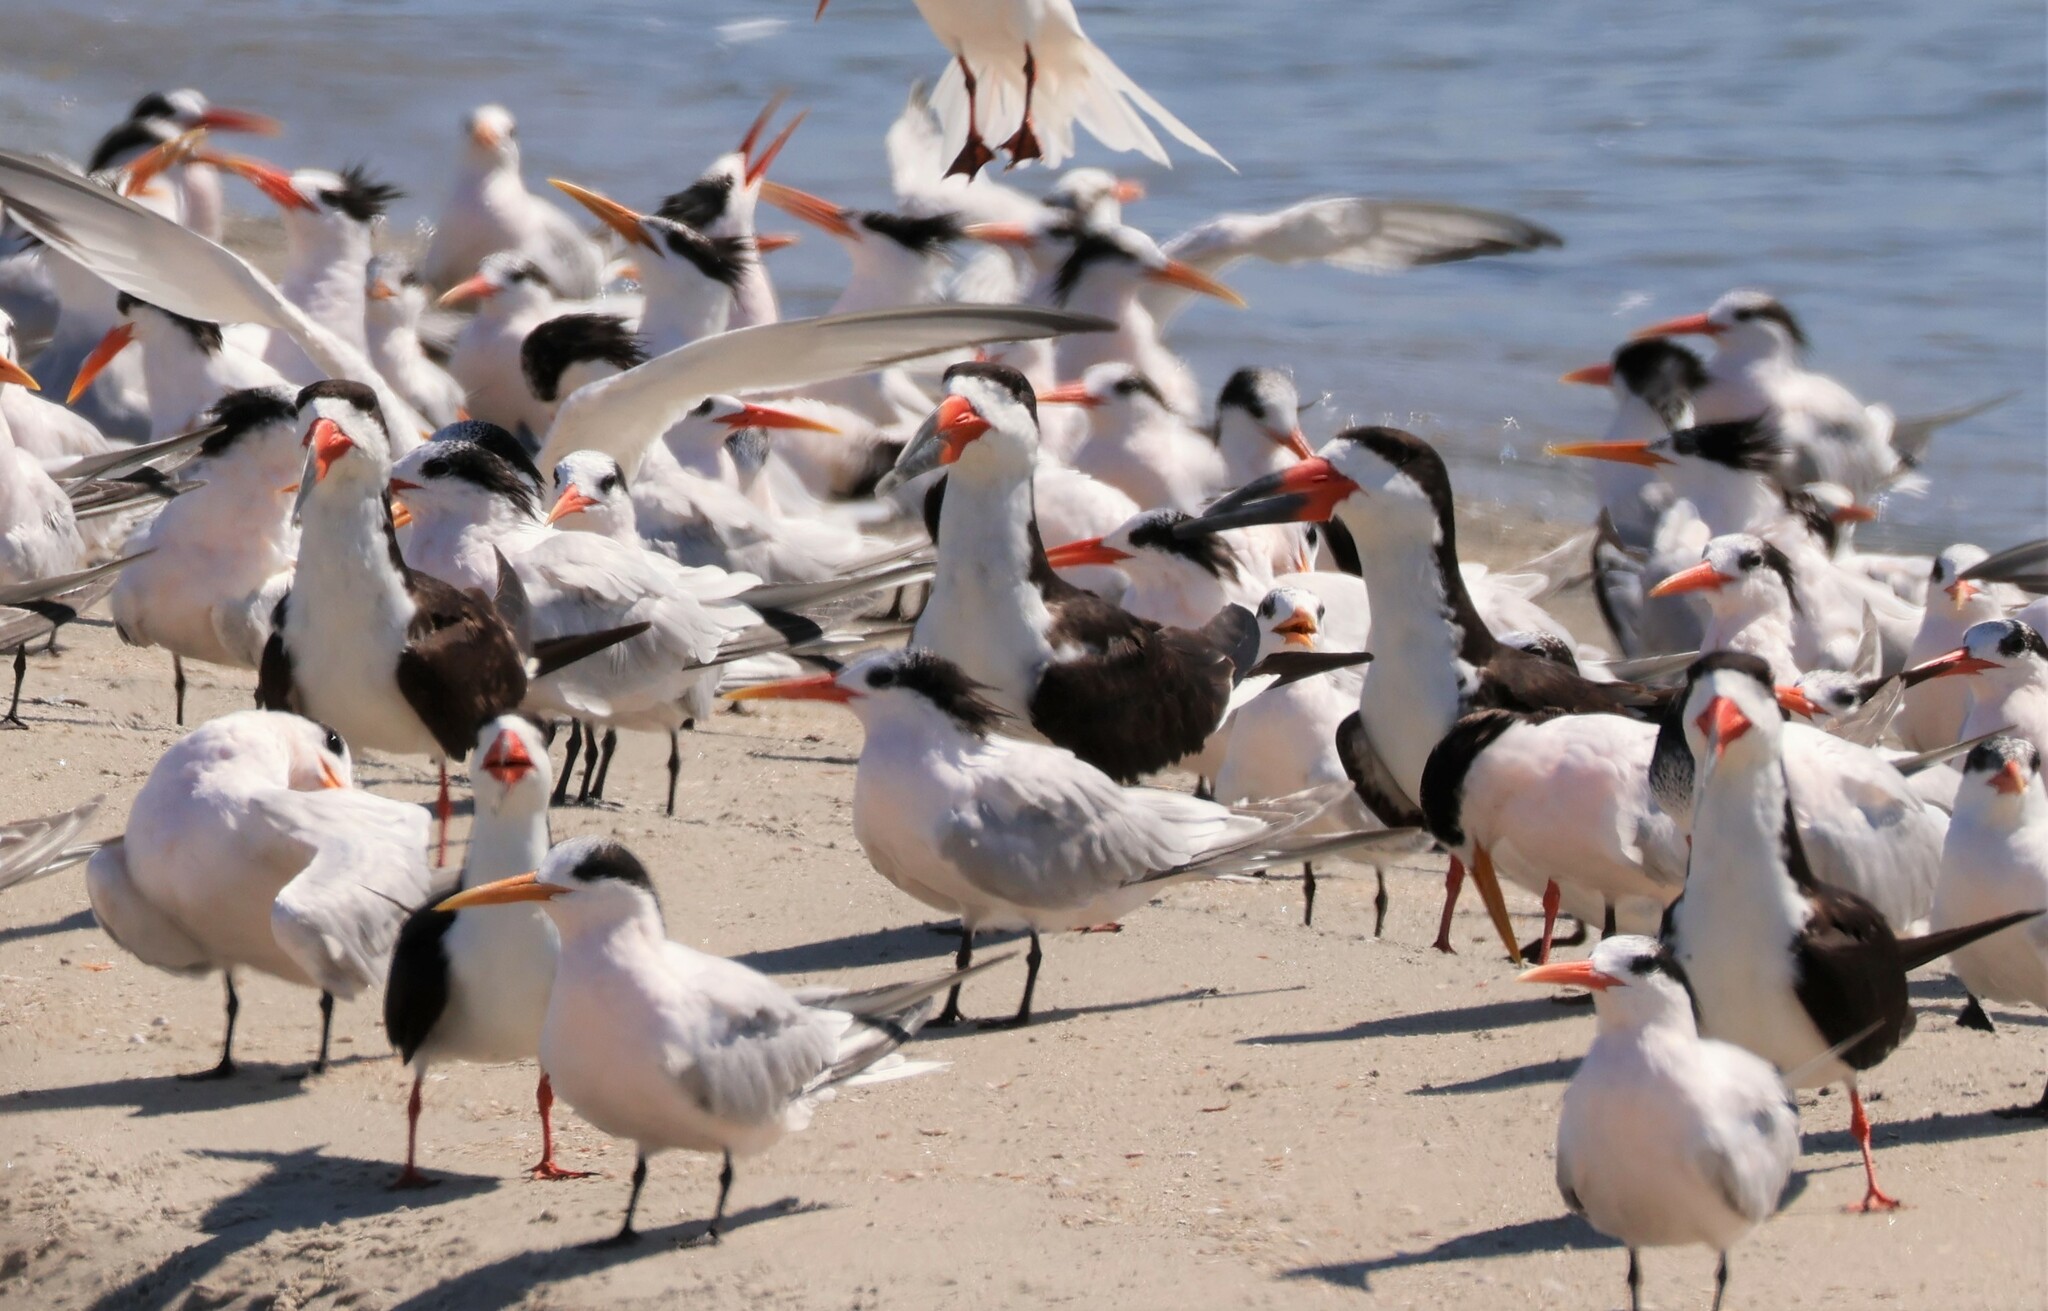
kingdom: Animalia
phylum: Chordata
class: Aves
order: Charadriiformes
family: Laridae
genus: Rynchops
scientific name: Rynchops niger
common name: Black skimmer
